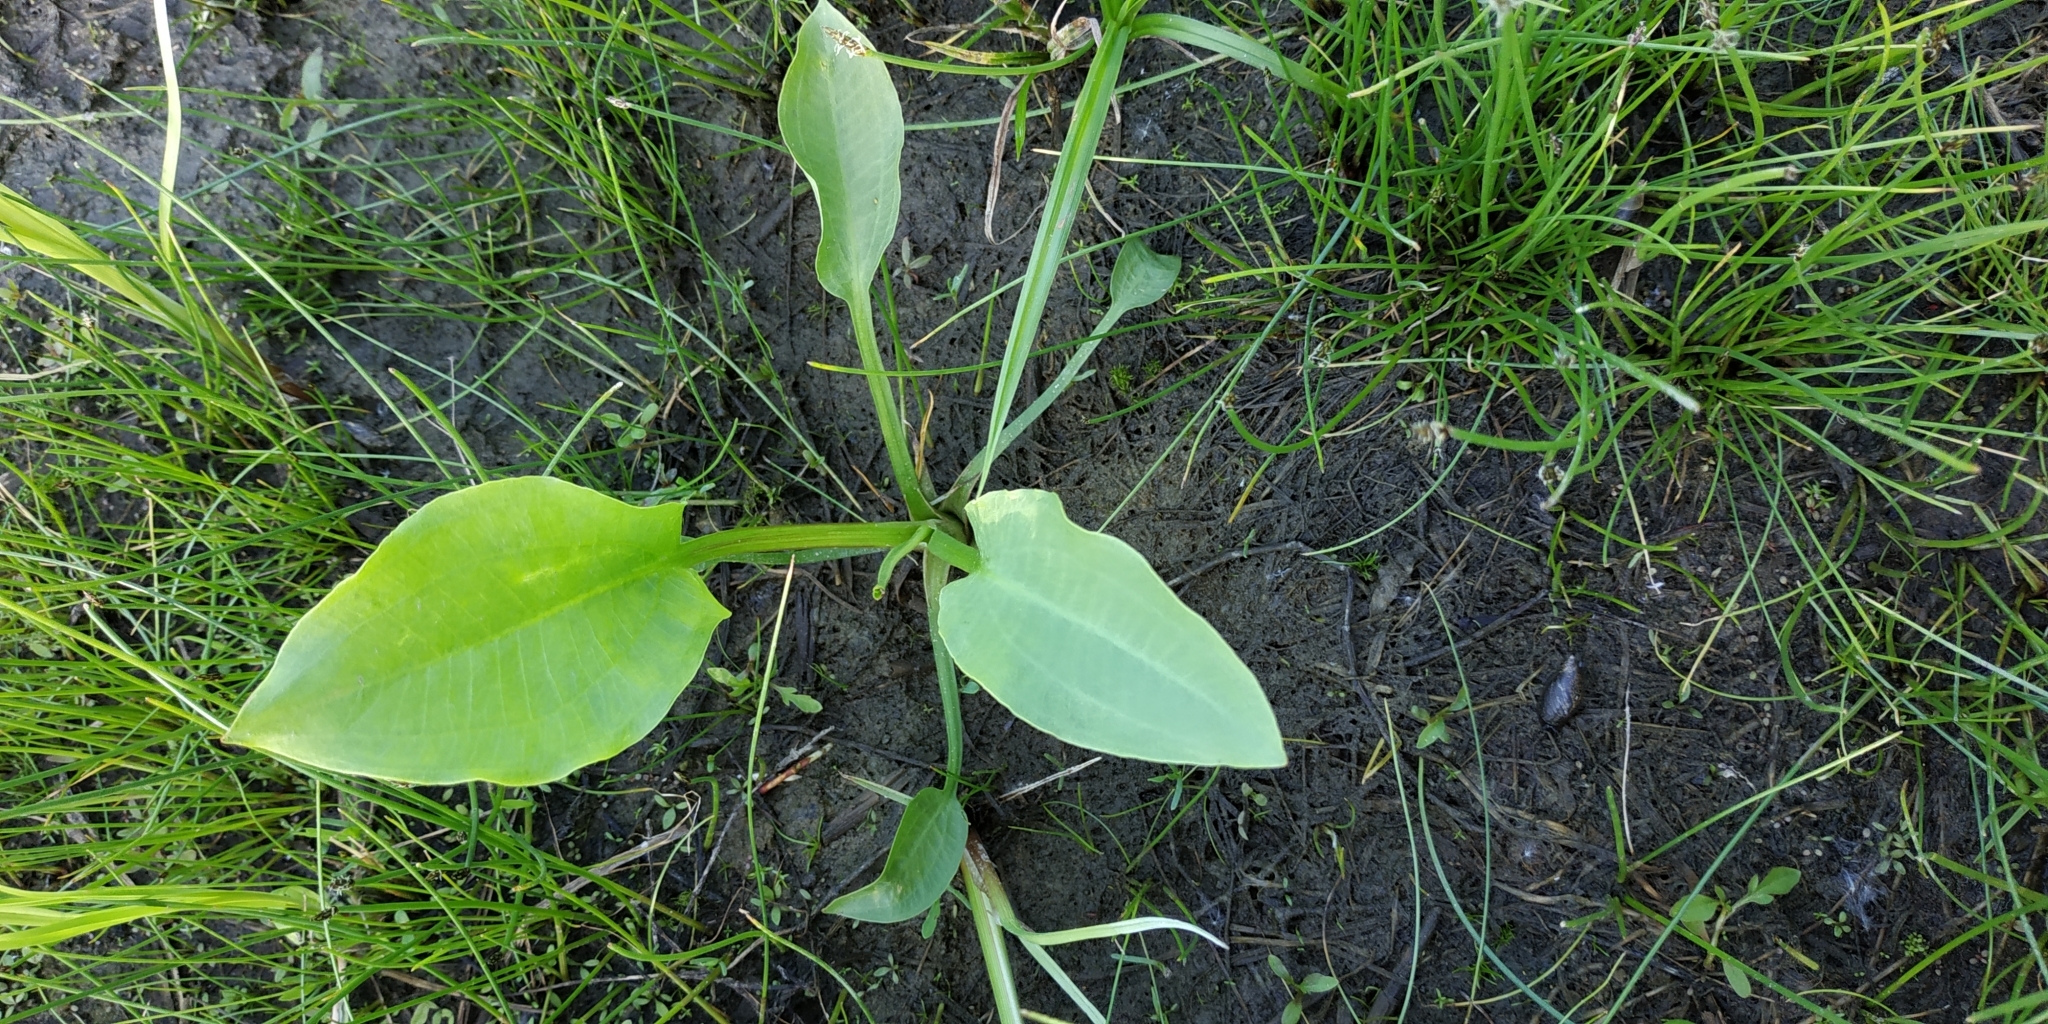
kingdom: Plantae
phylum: Tracheophyta
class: Liliopsida
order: Alismatales
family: Alismataceae
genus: Alisma
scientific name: Alisma plantago-aquatica
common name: Water-plantain
